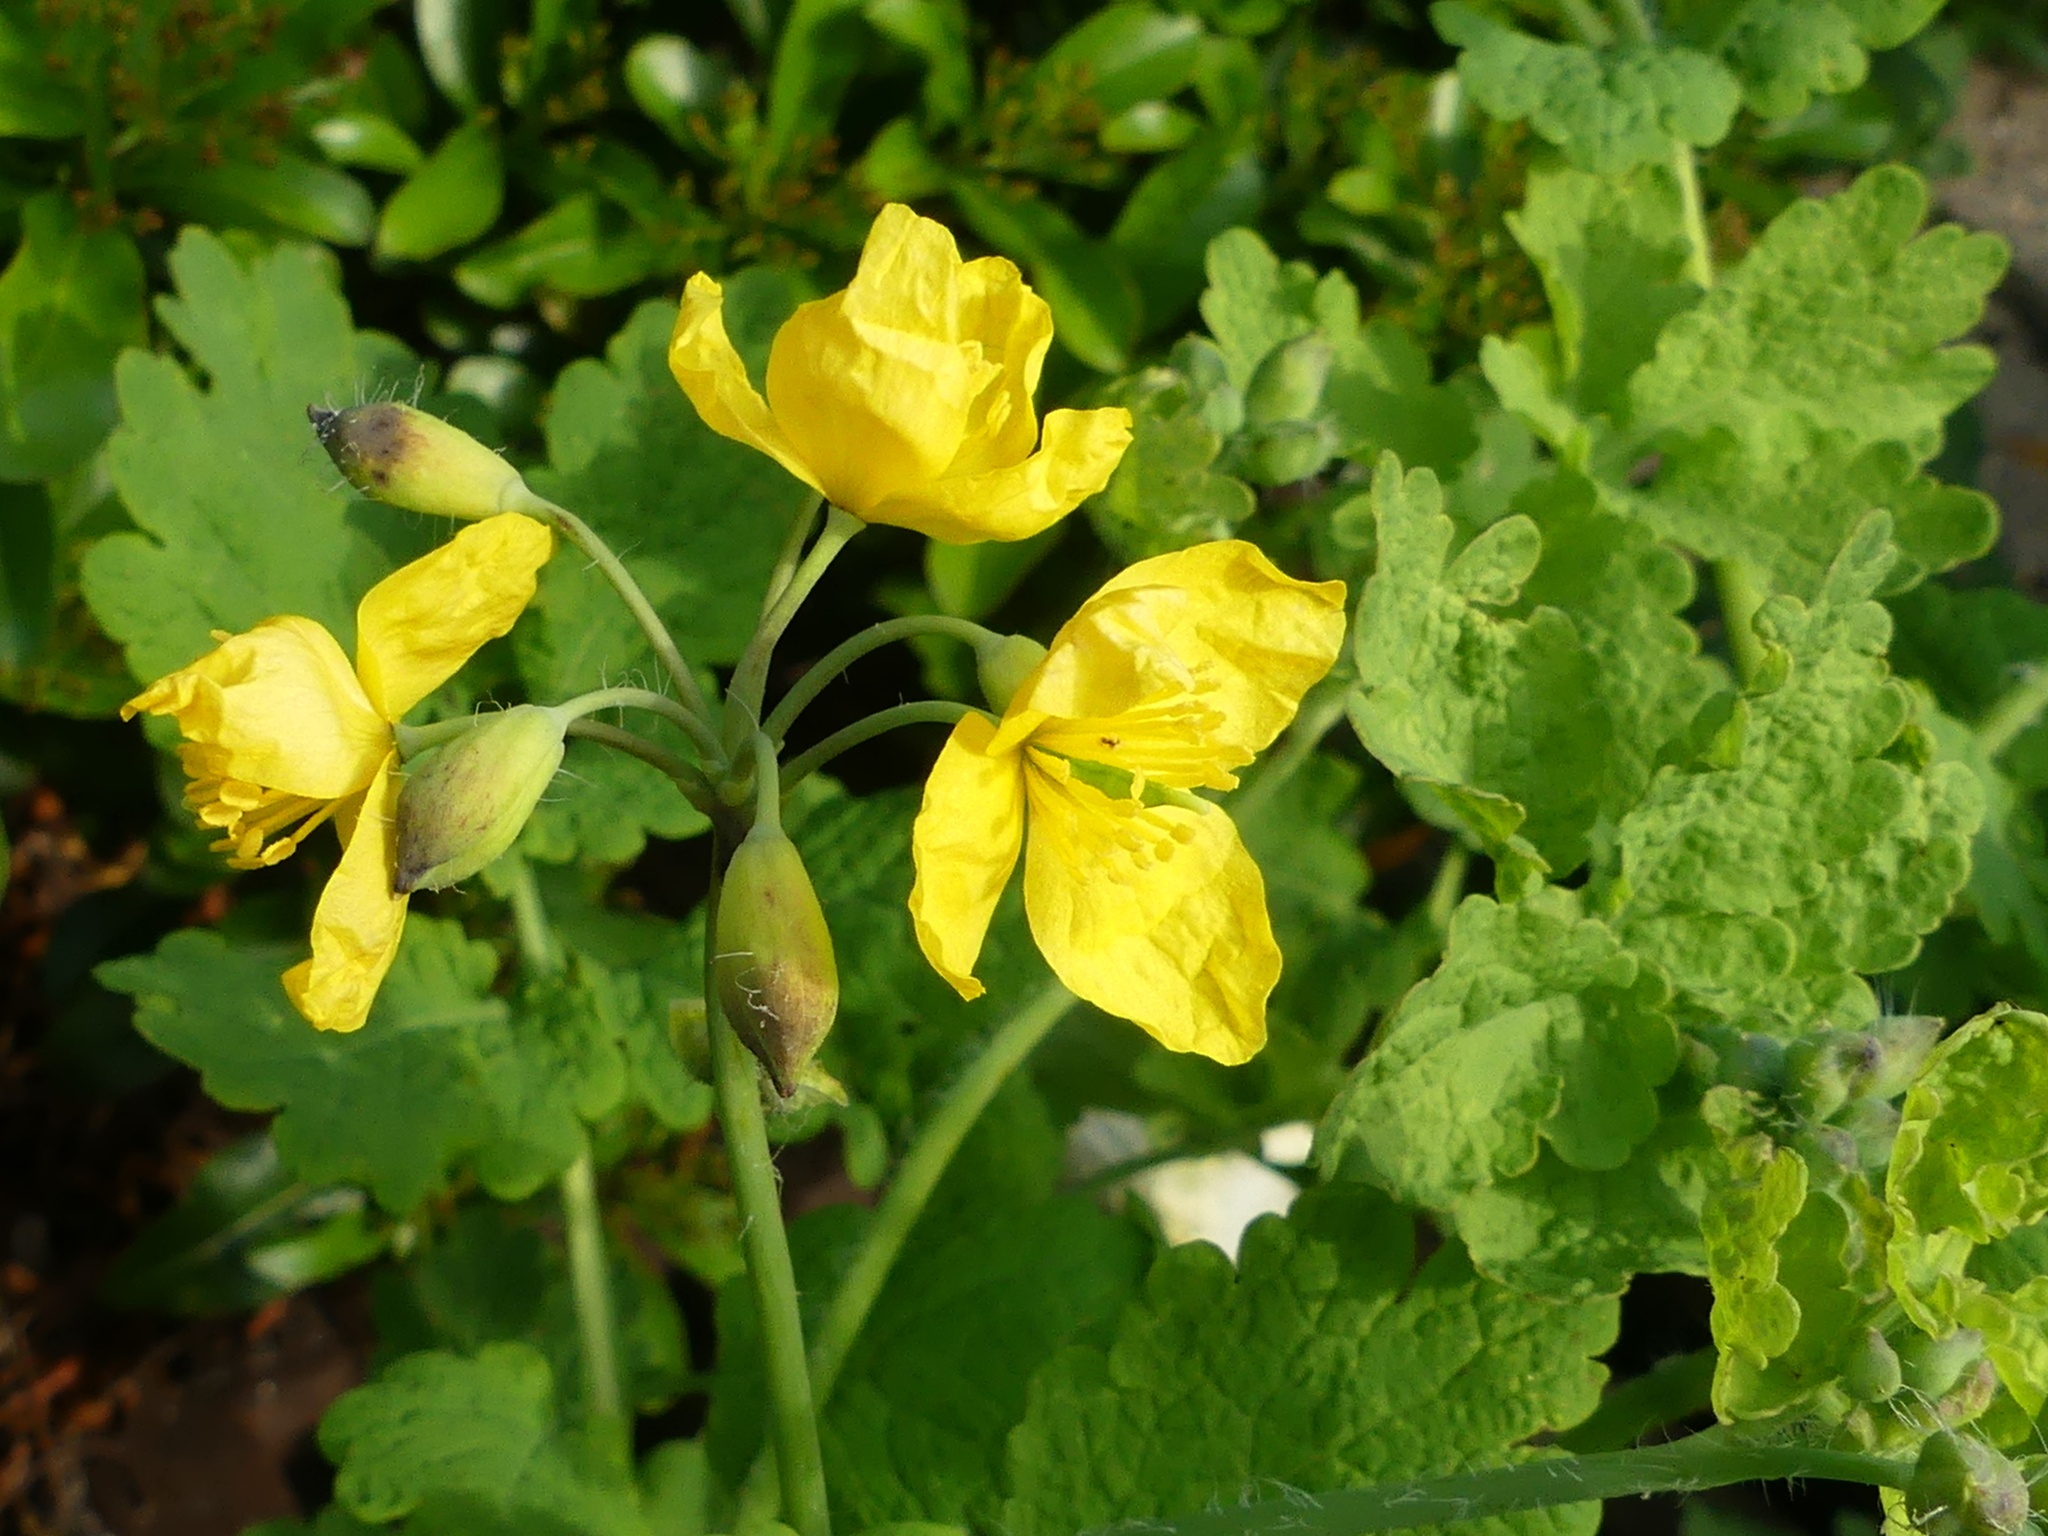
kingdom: Plantae
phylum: Tracheophyta
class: Magnoliopsida
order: Ranunculales
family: Papaveraceae
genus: Chelidonium
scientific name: Chelidonium majus
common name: Greater celandine
